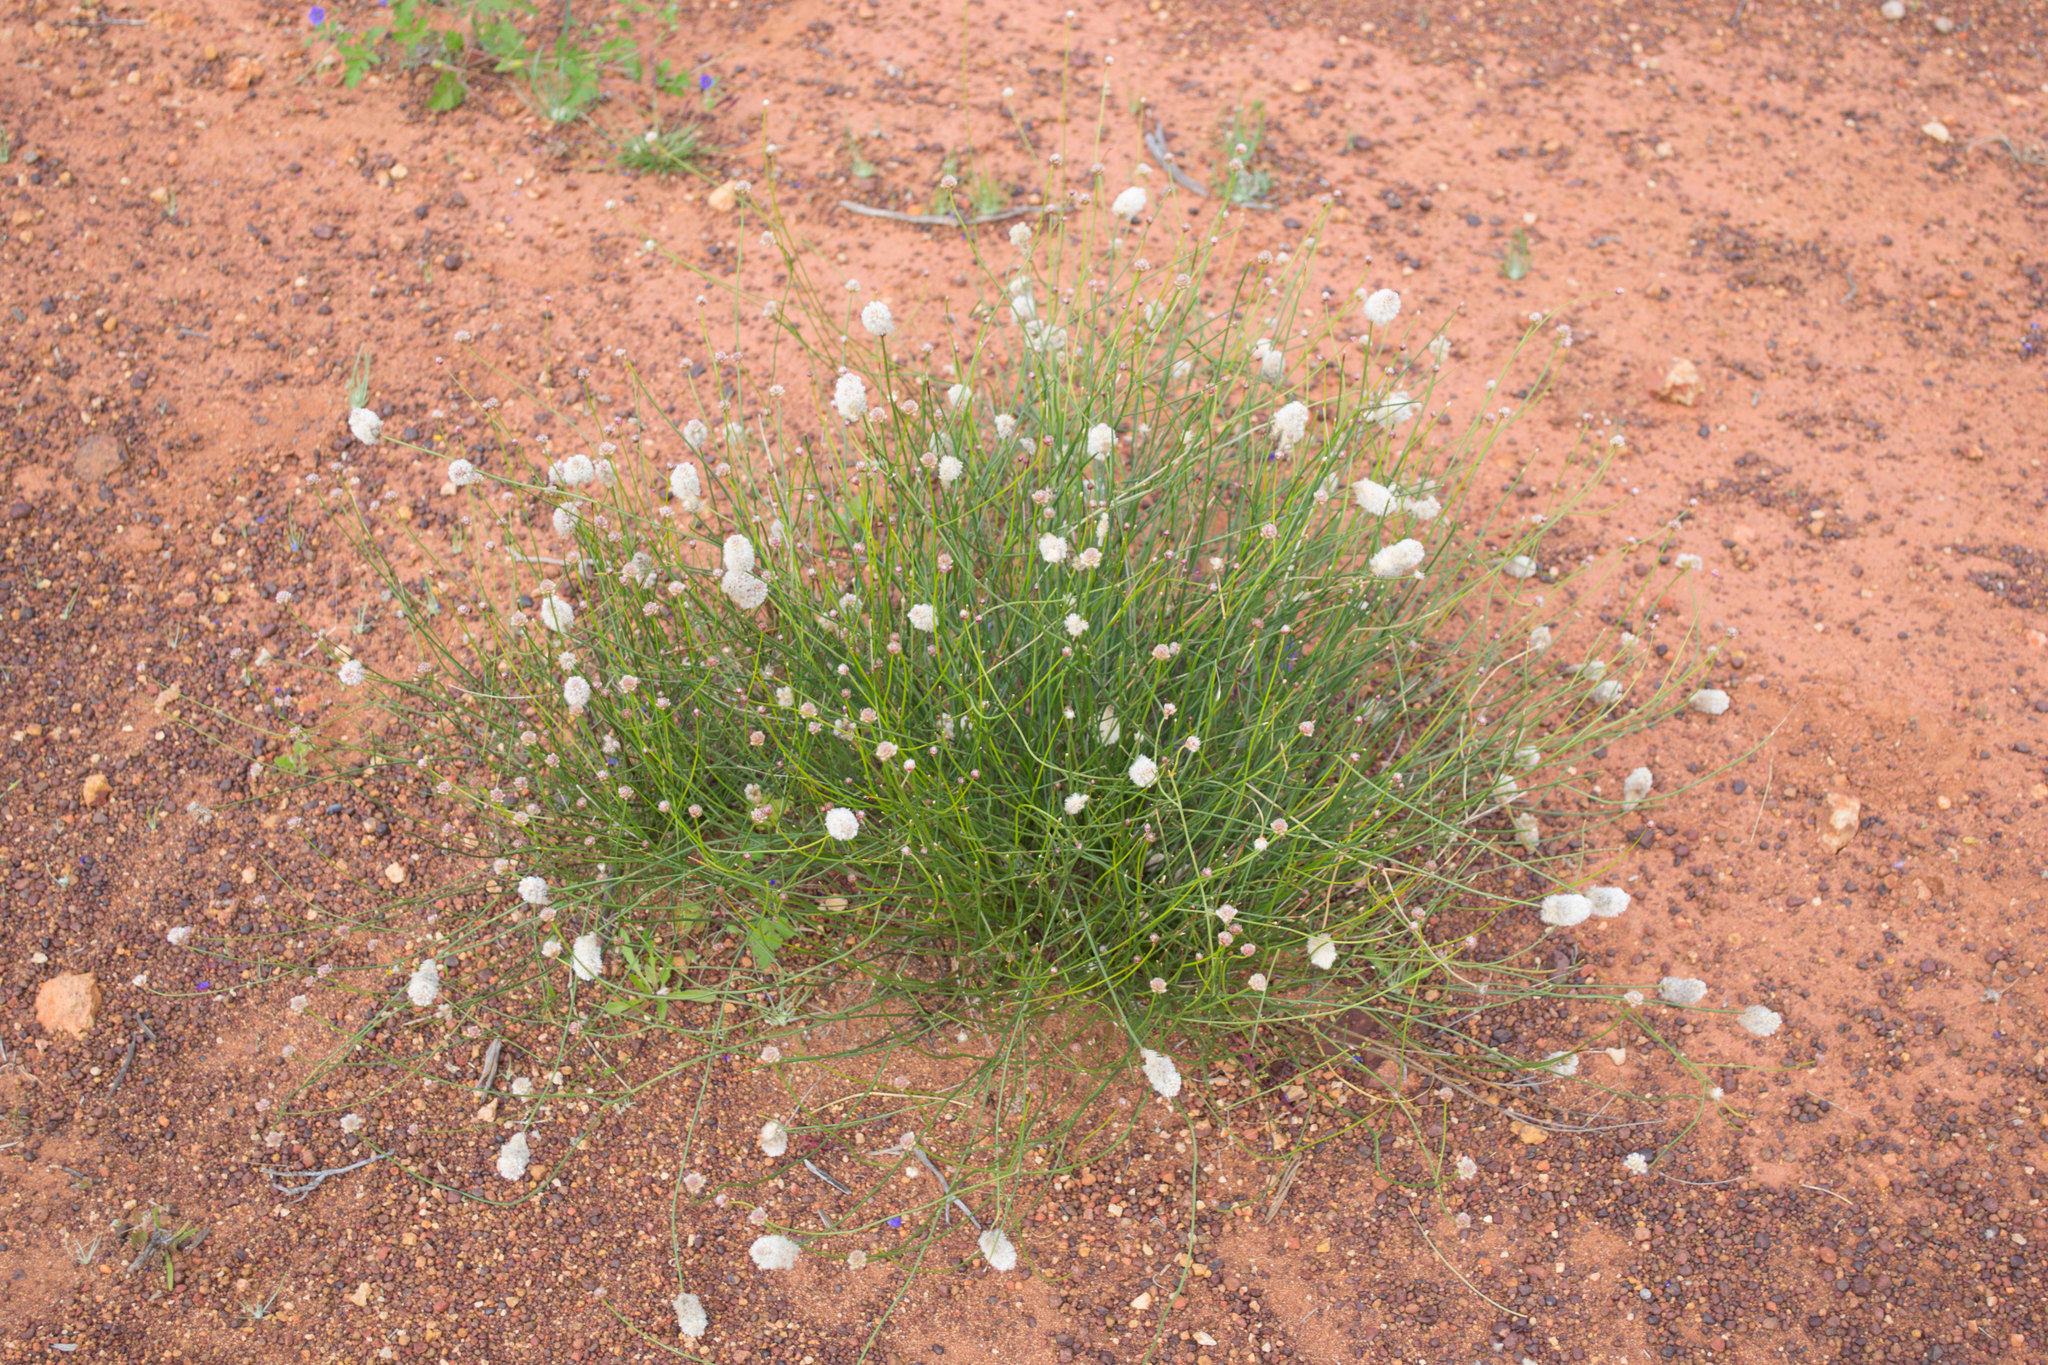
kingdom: Plantae
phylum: Tracheophyta
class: Magnoliopsida
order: Caryophyllales
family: Amaranthaceae
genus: Ptilotus
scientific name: Ptilotus schwartzii
